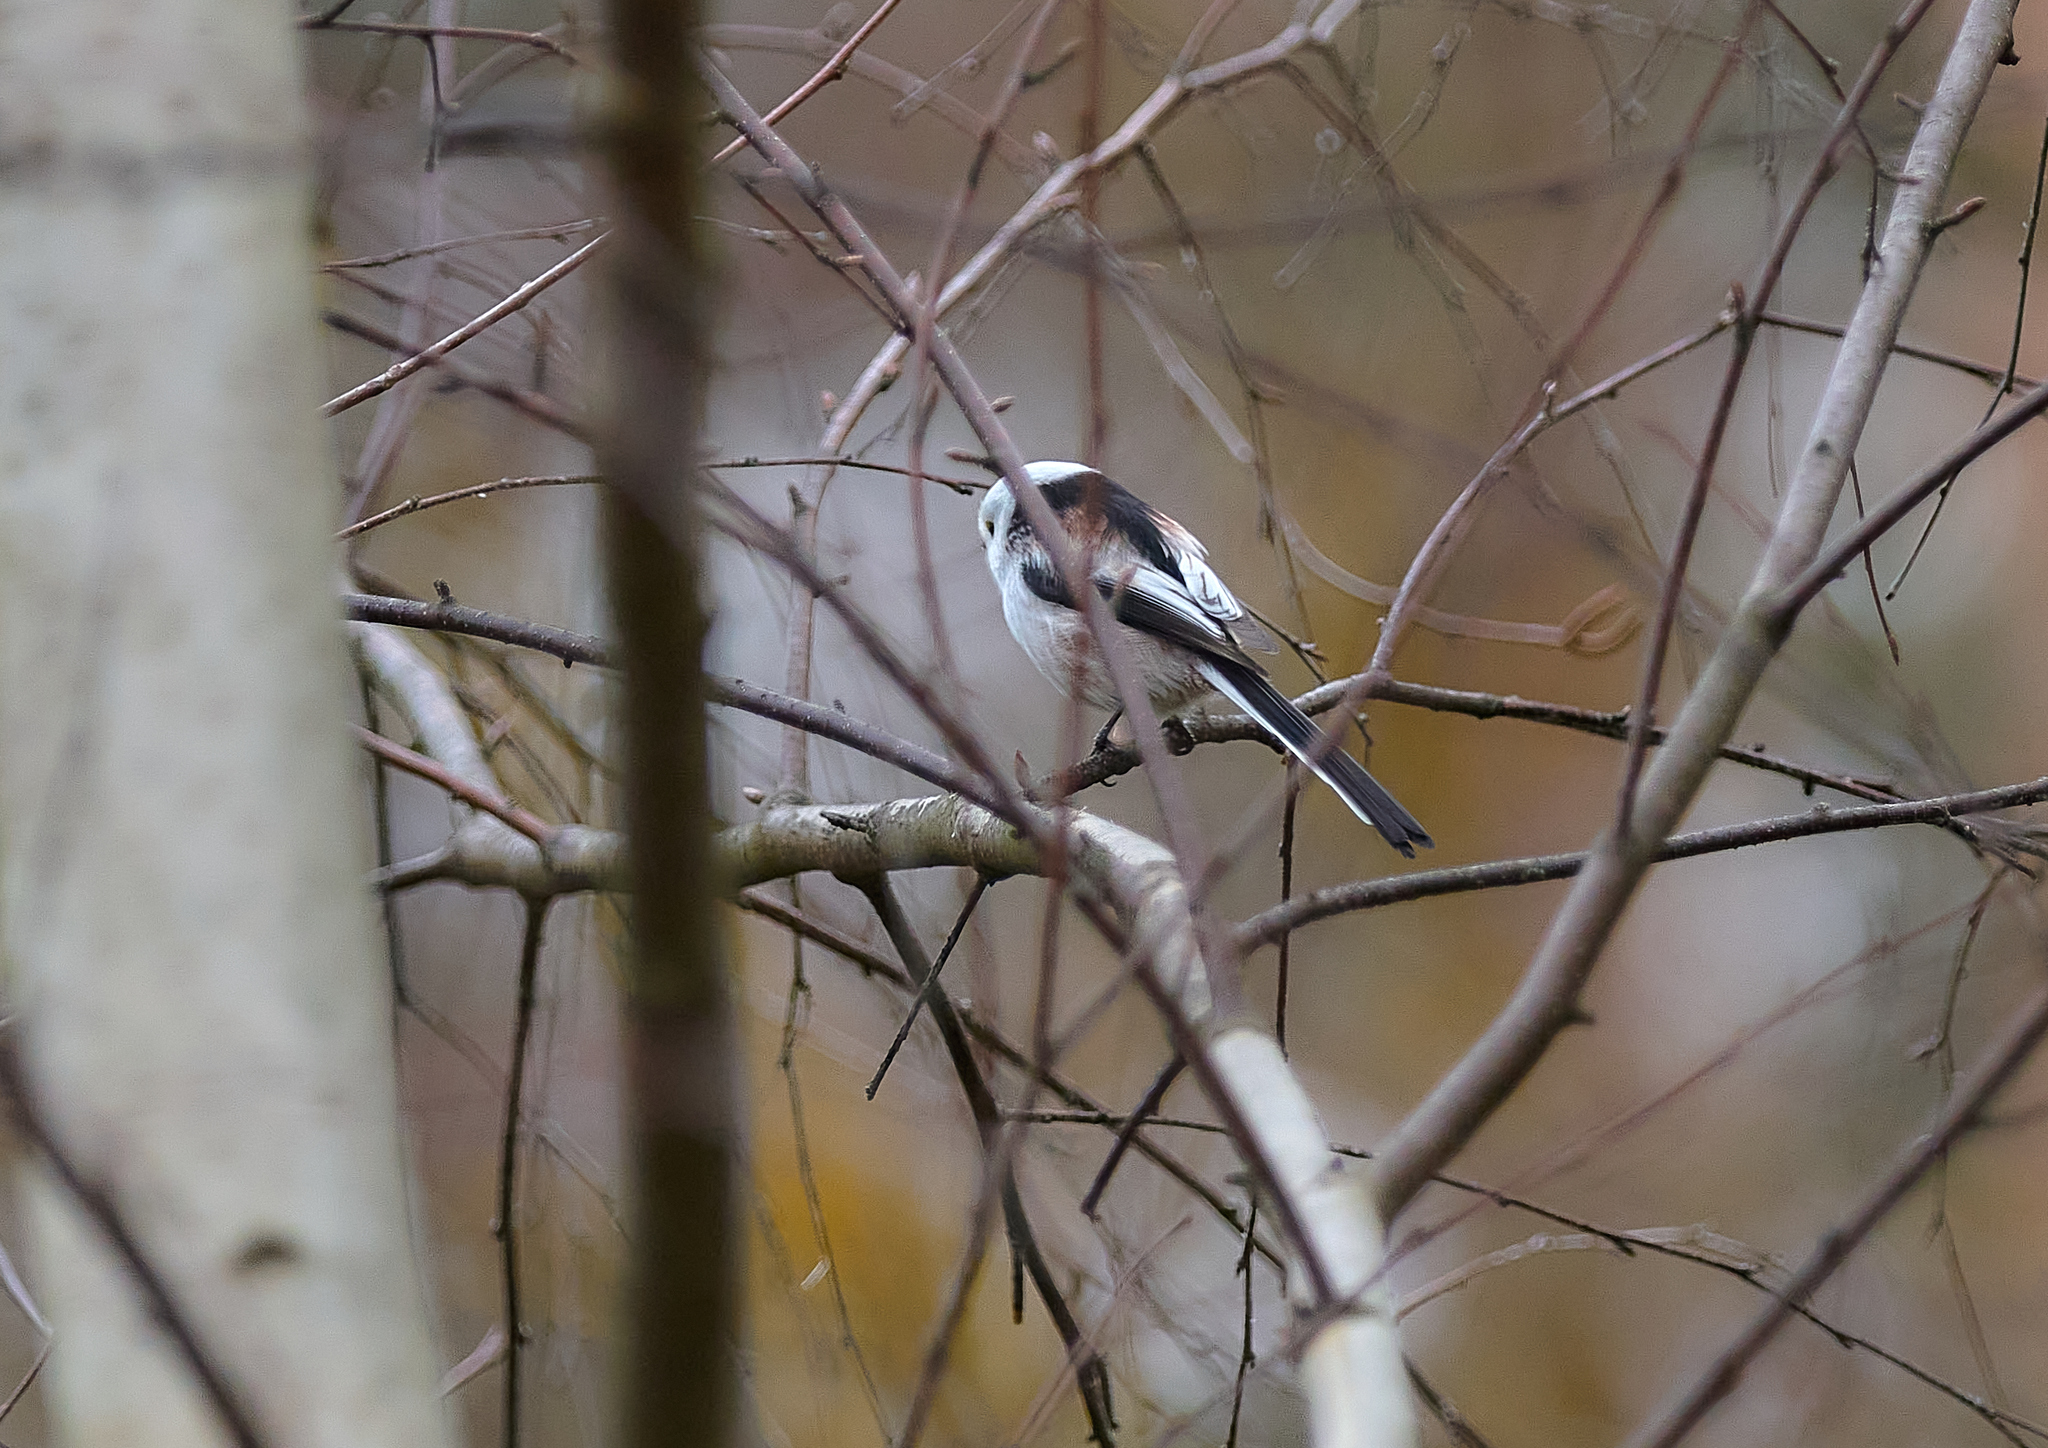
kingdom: Animalia
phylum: Chordata
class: Aves
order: Passeriformes
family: Aegithalidae
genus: Aegithalos
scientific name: Aegithalos caudatus
